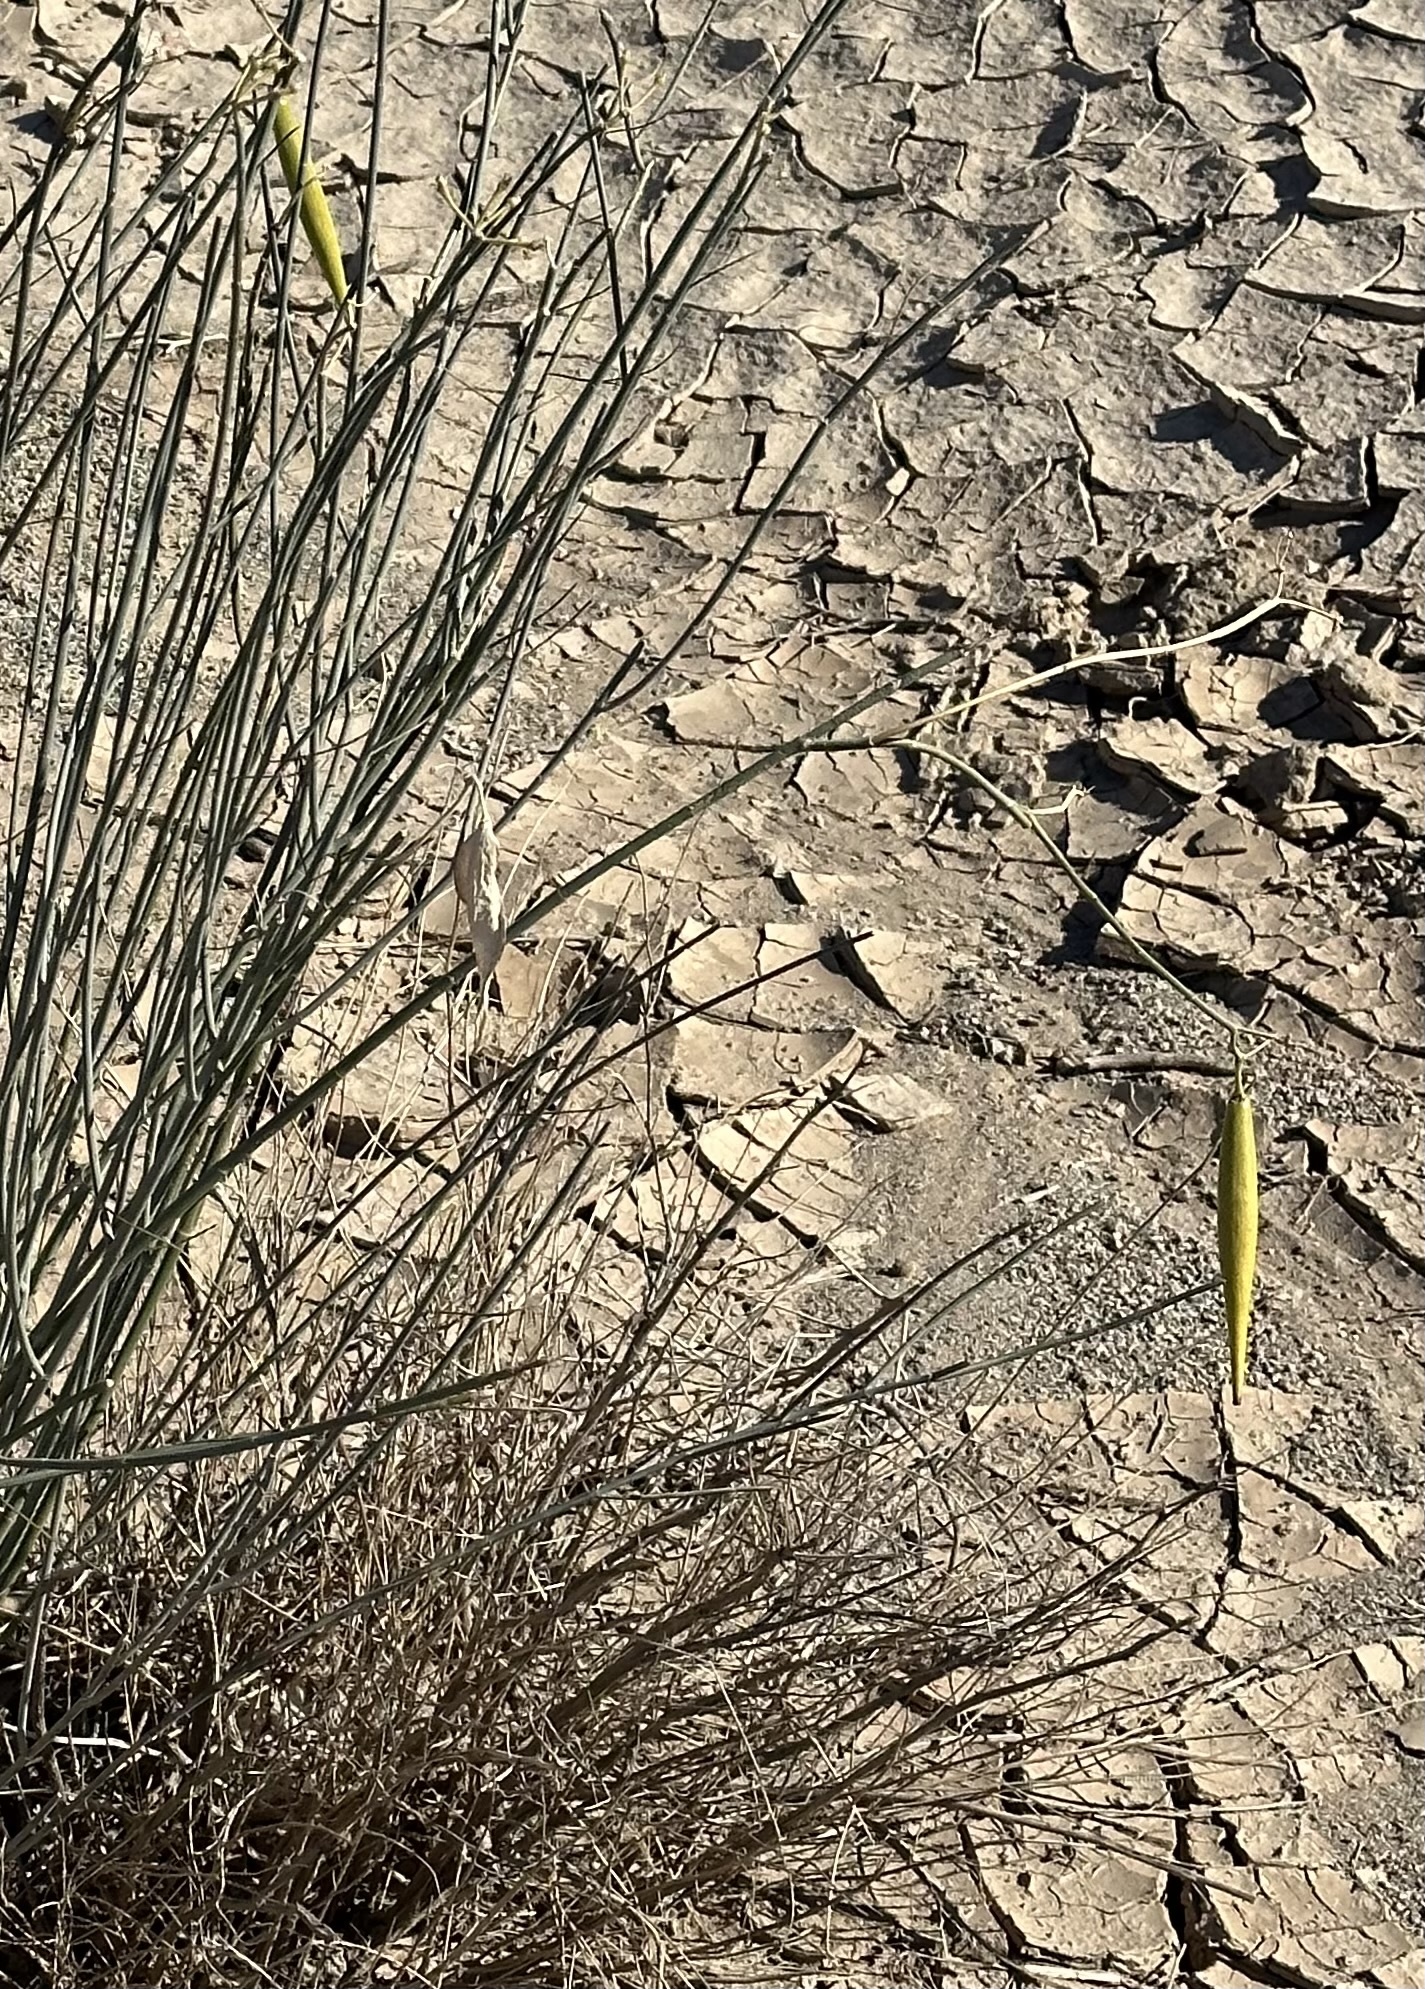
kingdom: Plantae
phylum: Tracheophyta
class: Magnoliopsida
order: Gentianales
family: Apocynaceae
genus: Asclepias
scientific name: Asclepias subulata
